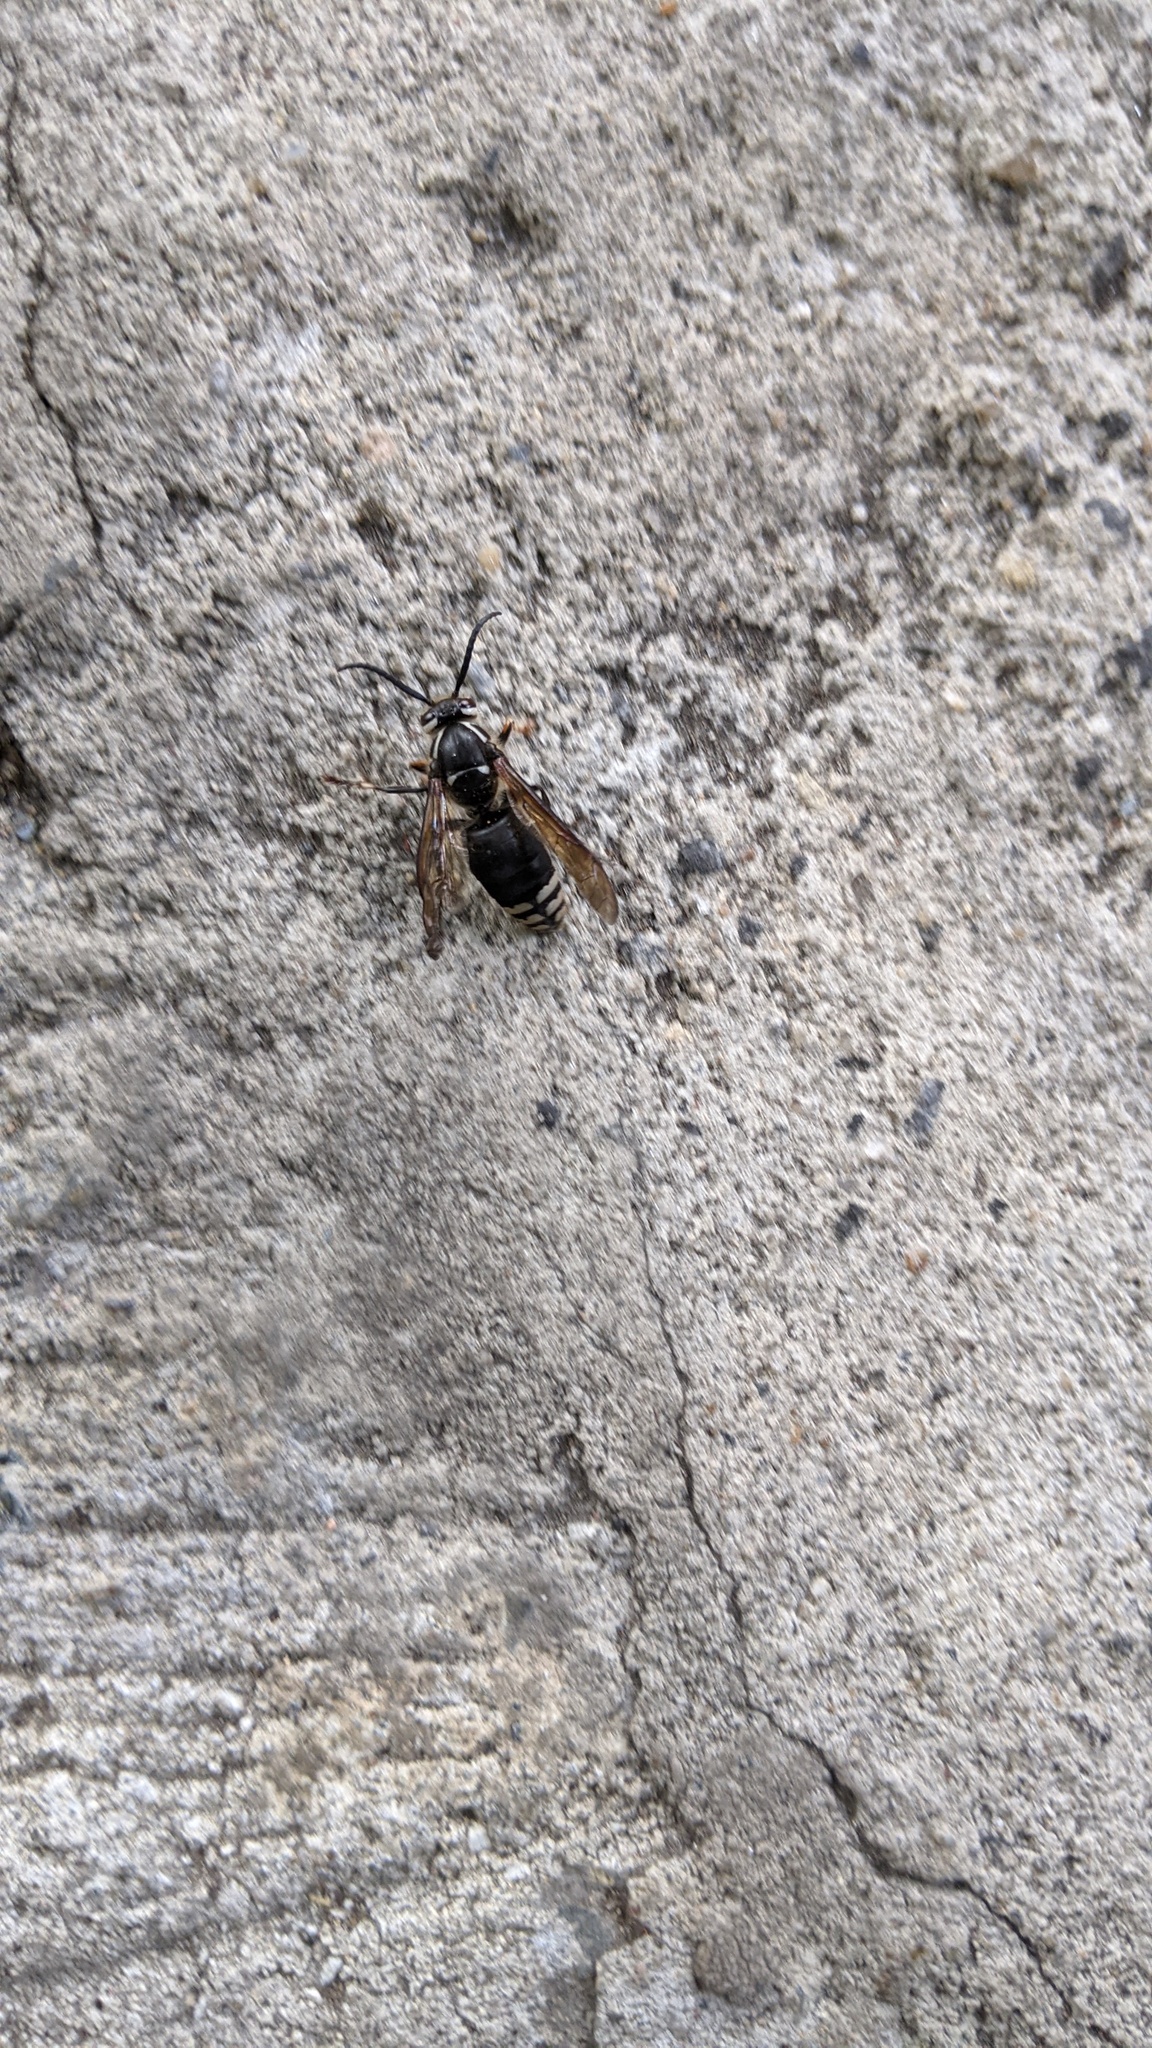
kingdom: Animalia
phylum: Arthropoda
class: Insecta
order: Hymenoptera
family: Vespidae
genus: Dolichovespula
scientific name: Dolichovespula maculata
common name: Bald-faced hornet
